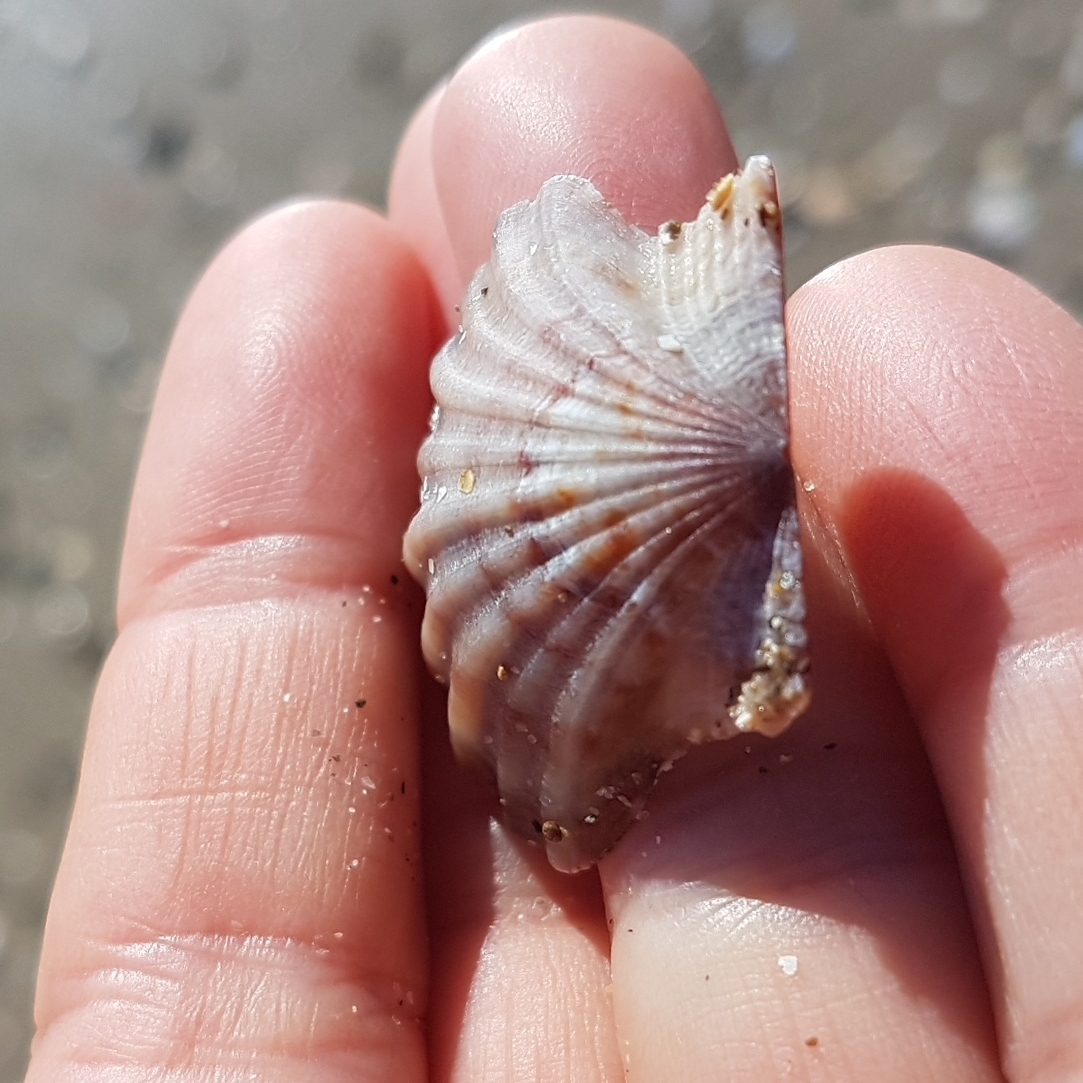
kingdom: Animalia
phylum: Mollusca
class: Bivalvia
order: Pectinida
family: Pectinidae
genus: Flexopecten
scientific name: Flexopecten glaber
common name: Smooth scallop
